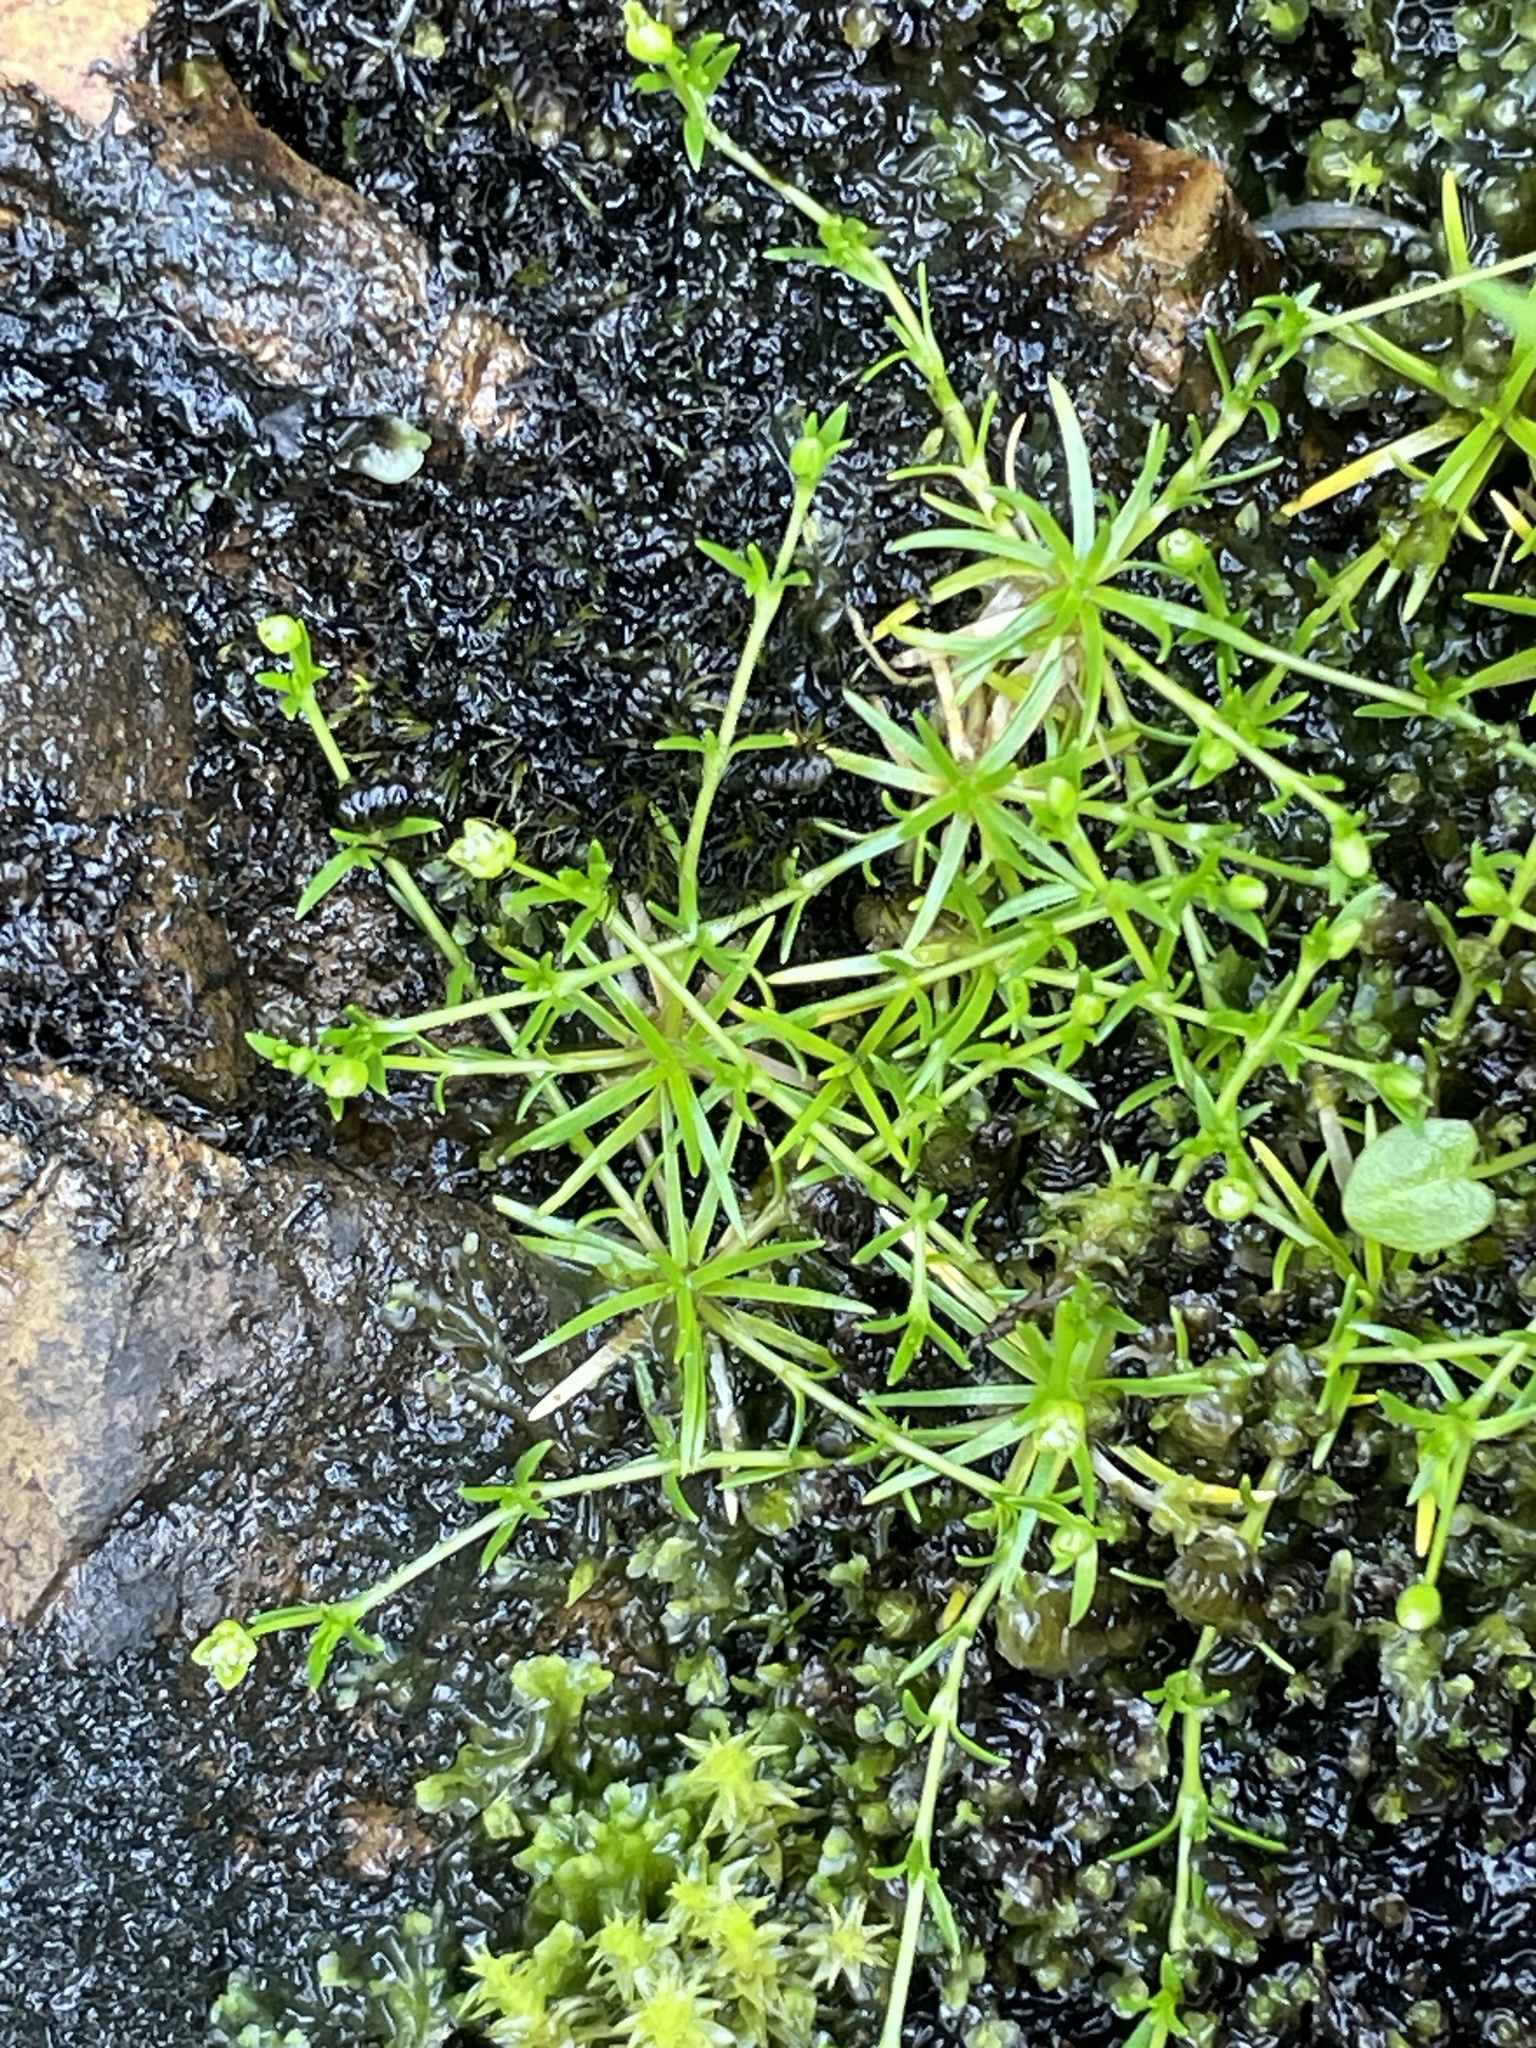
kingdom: Plantae
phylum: Tracheophyta
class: Magnoliopsida
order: Caryophyllales
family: Caryophyllaceae
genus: Sagina
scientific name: Sagina procumbens
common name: Procumbent pearlwort
